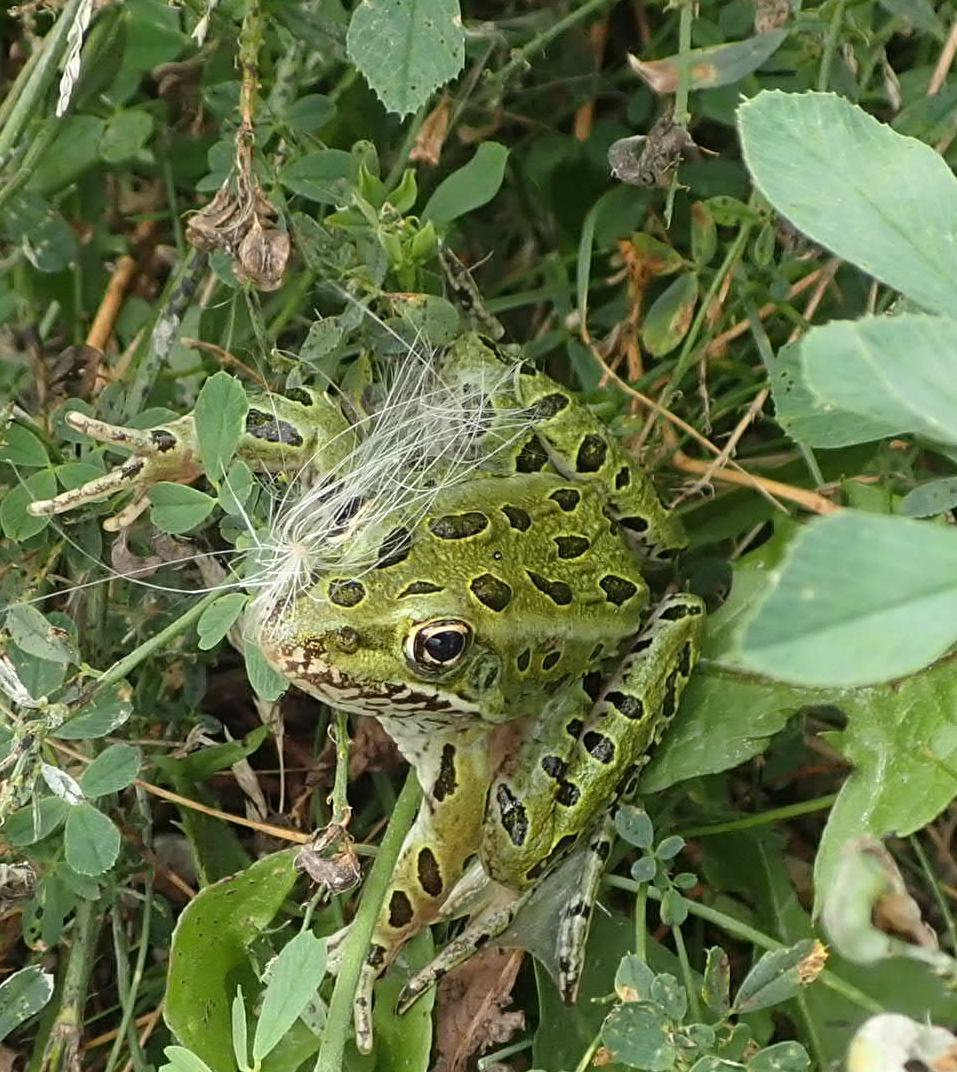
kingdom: Animalia
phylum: Chordata
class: Amphibia
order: Anura
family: Ranidae
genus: Lithobates
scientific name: Lithobates pipiens
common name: Northern leopard frog
